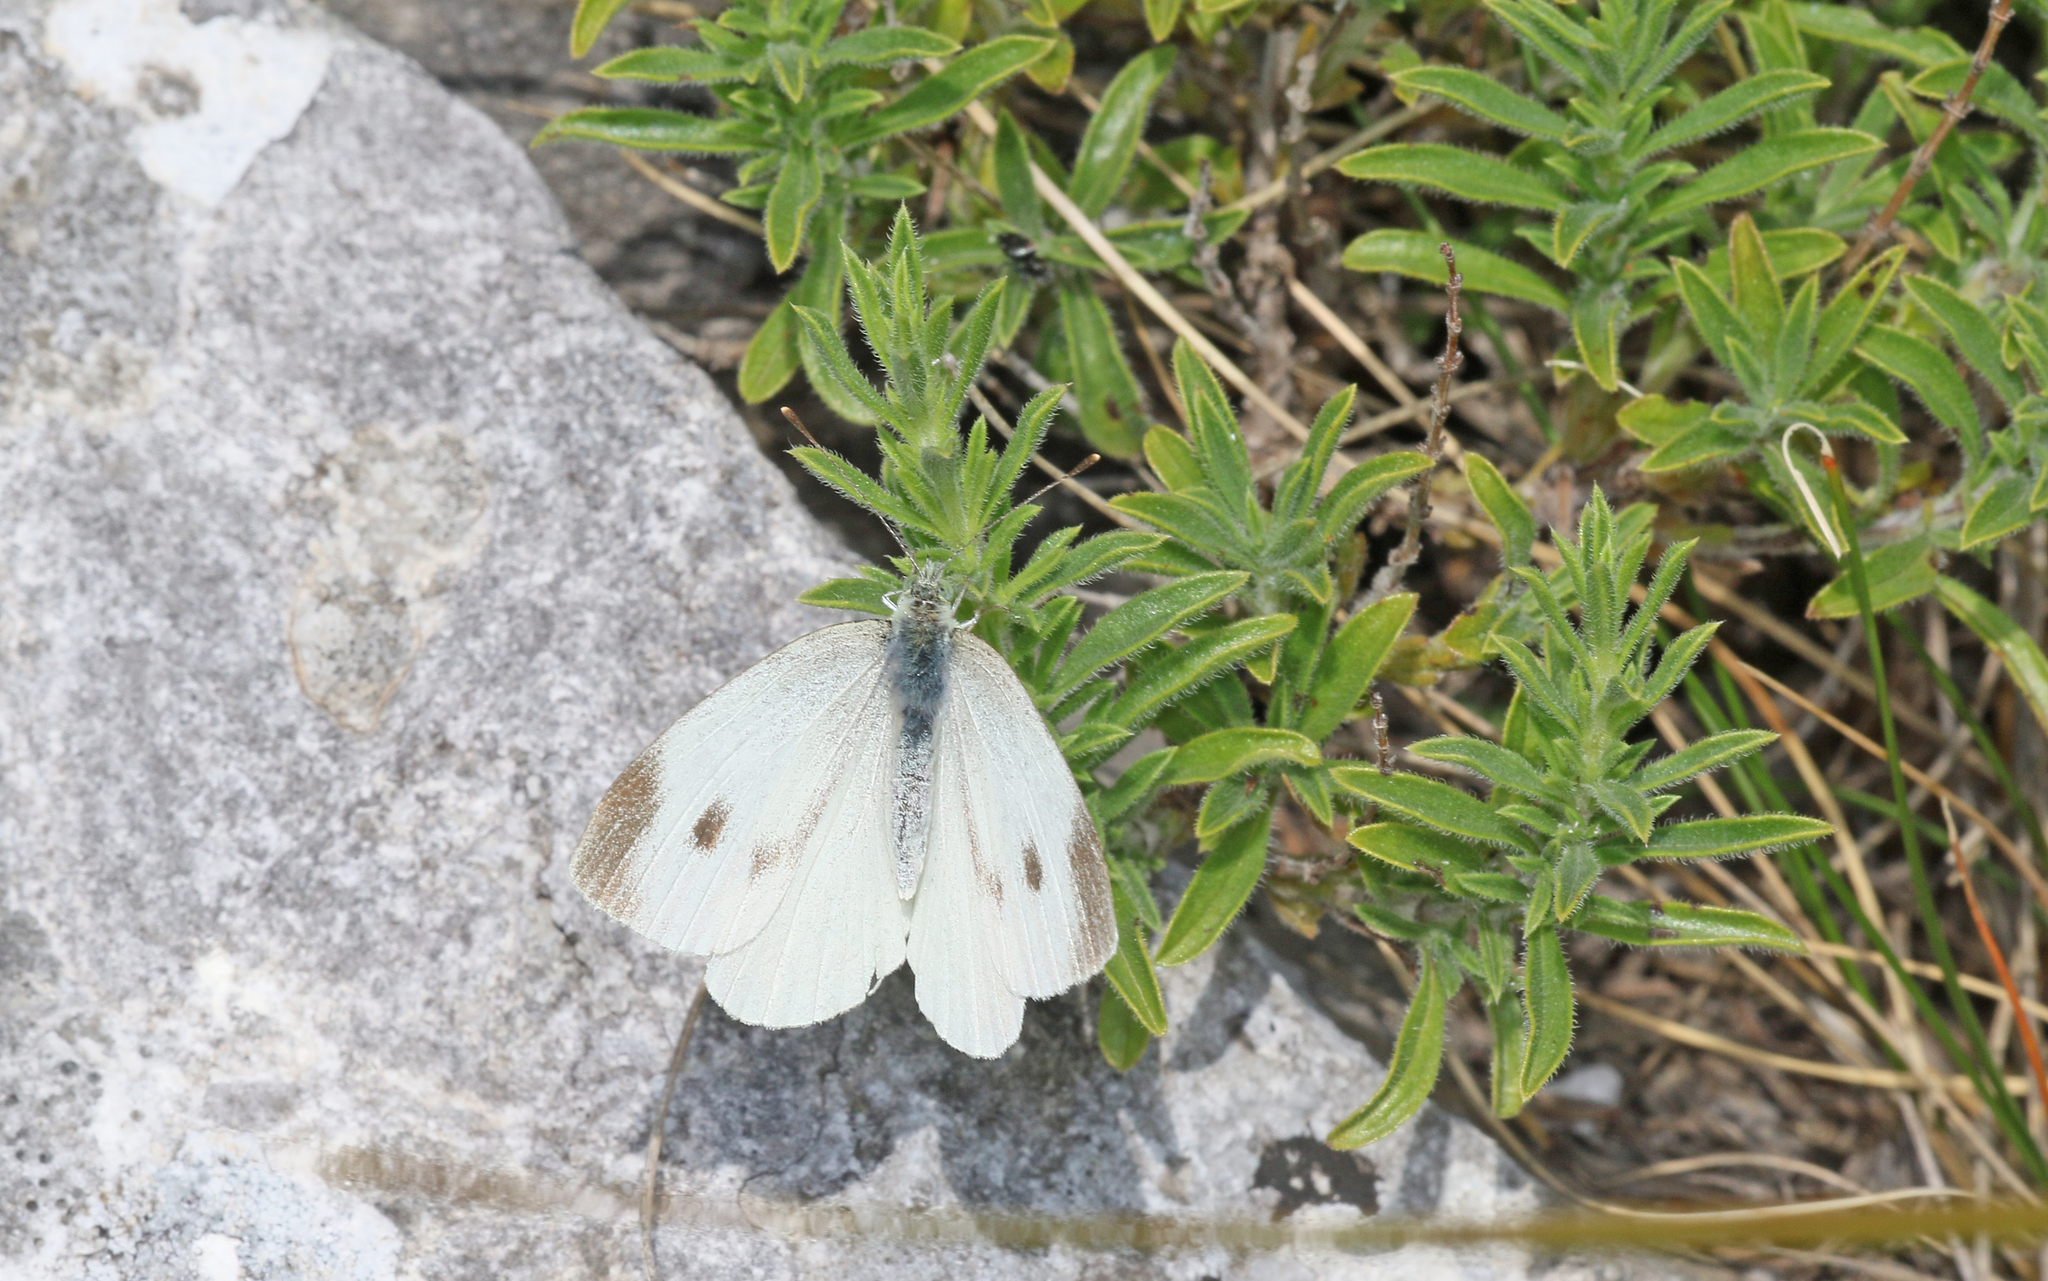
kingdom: Animalia
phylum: Arthropoda
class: Insecta
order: Lepidoptera
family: Pieridae
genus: Pieris
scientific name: Pieris mannii
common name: Southern small white
